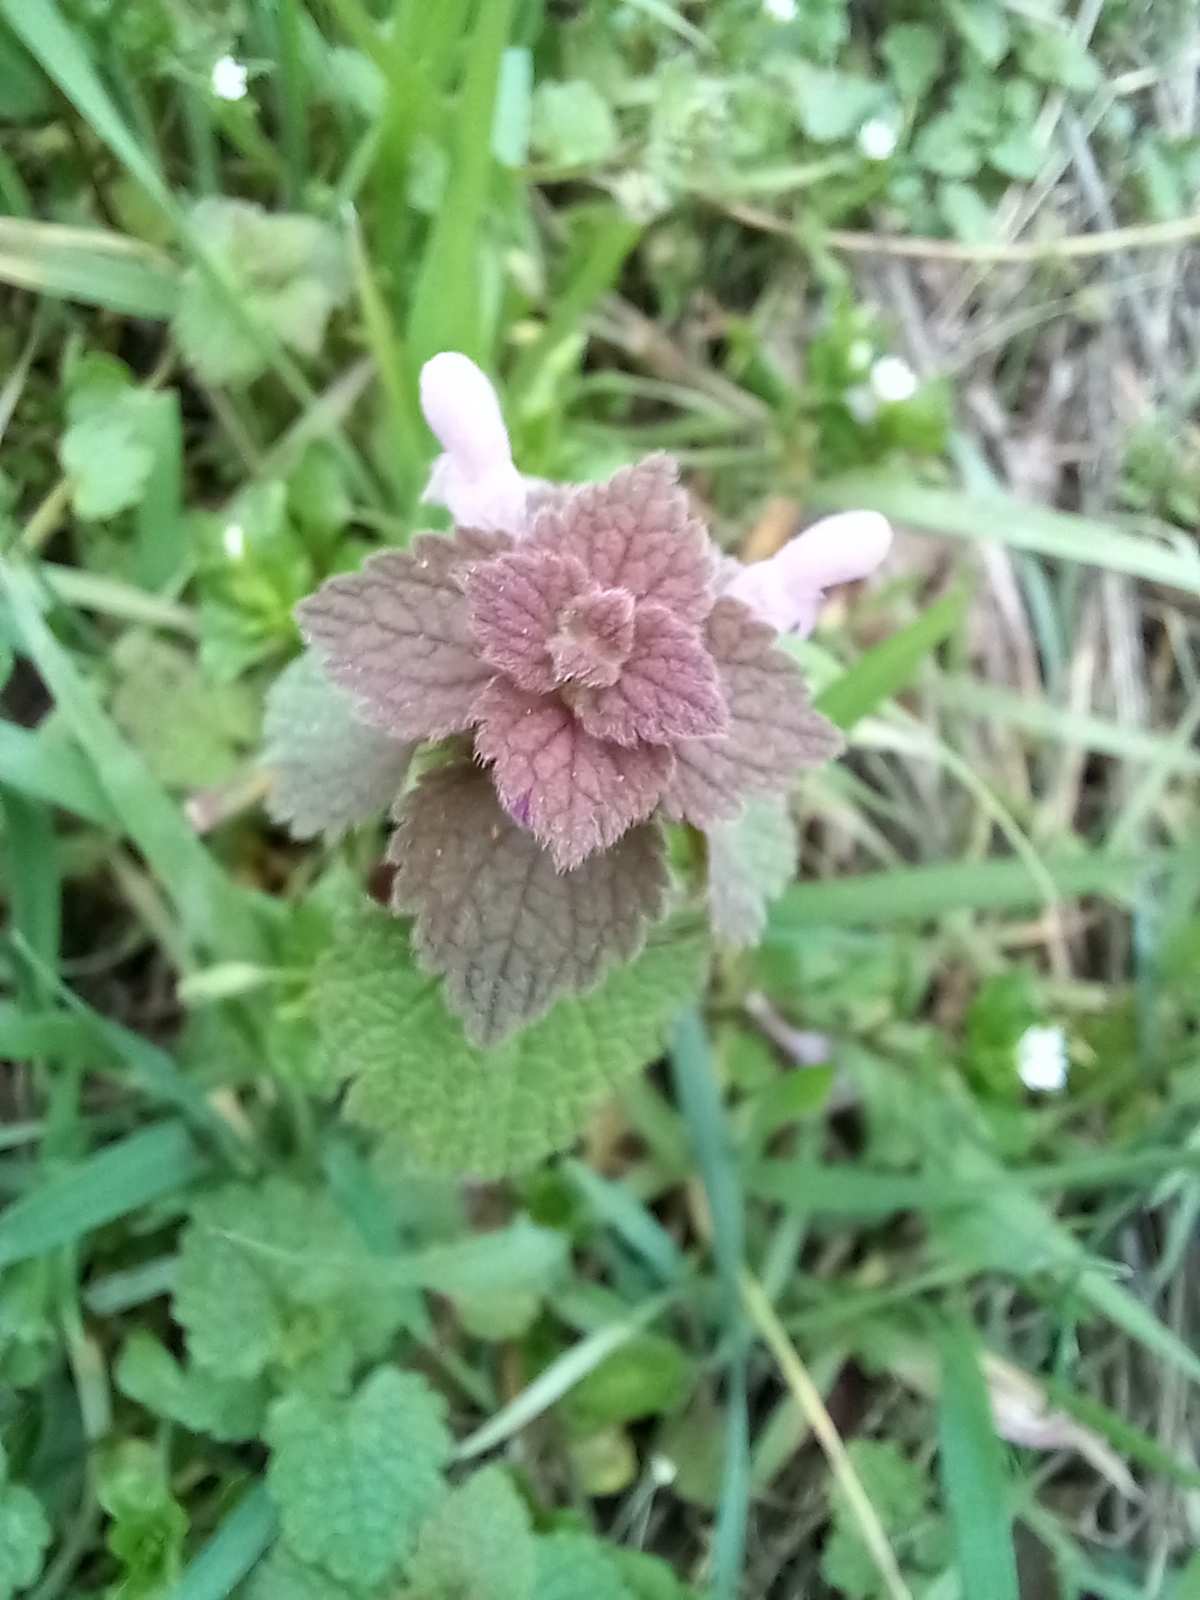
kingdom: Plantae
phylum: Tracheophyta
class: Magnoliopsida
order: Lamiales
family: Lamiaceae
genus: Lamium
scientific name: Lamium purpureum
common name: Red dead-nettle
